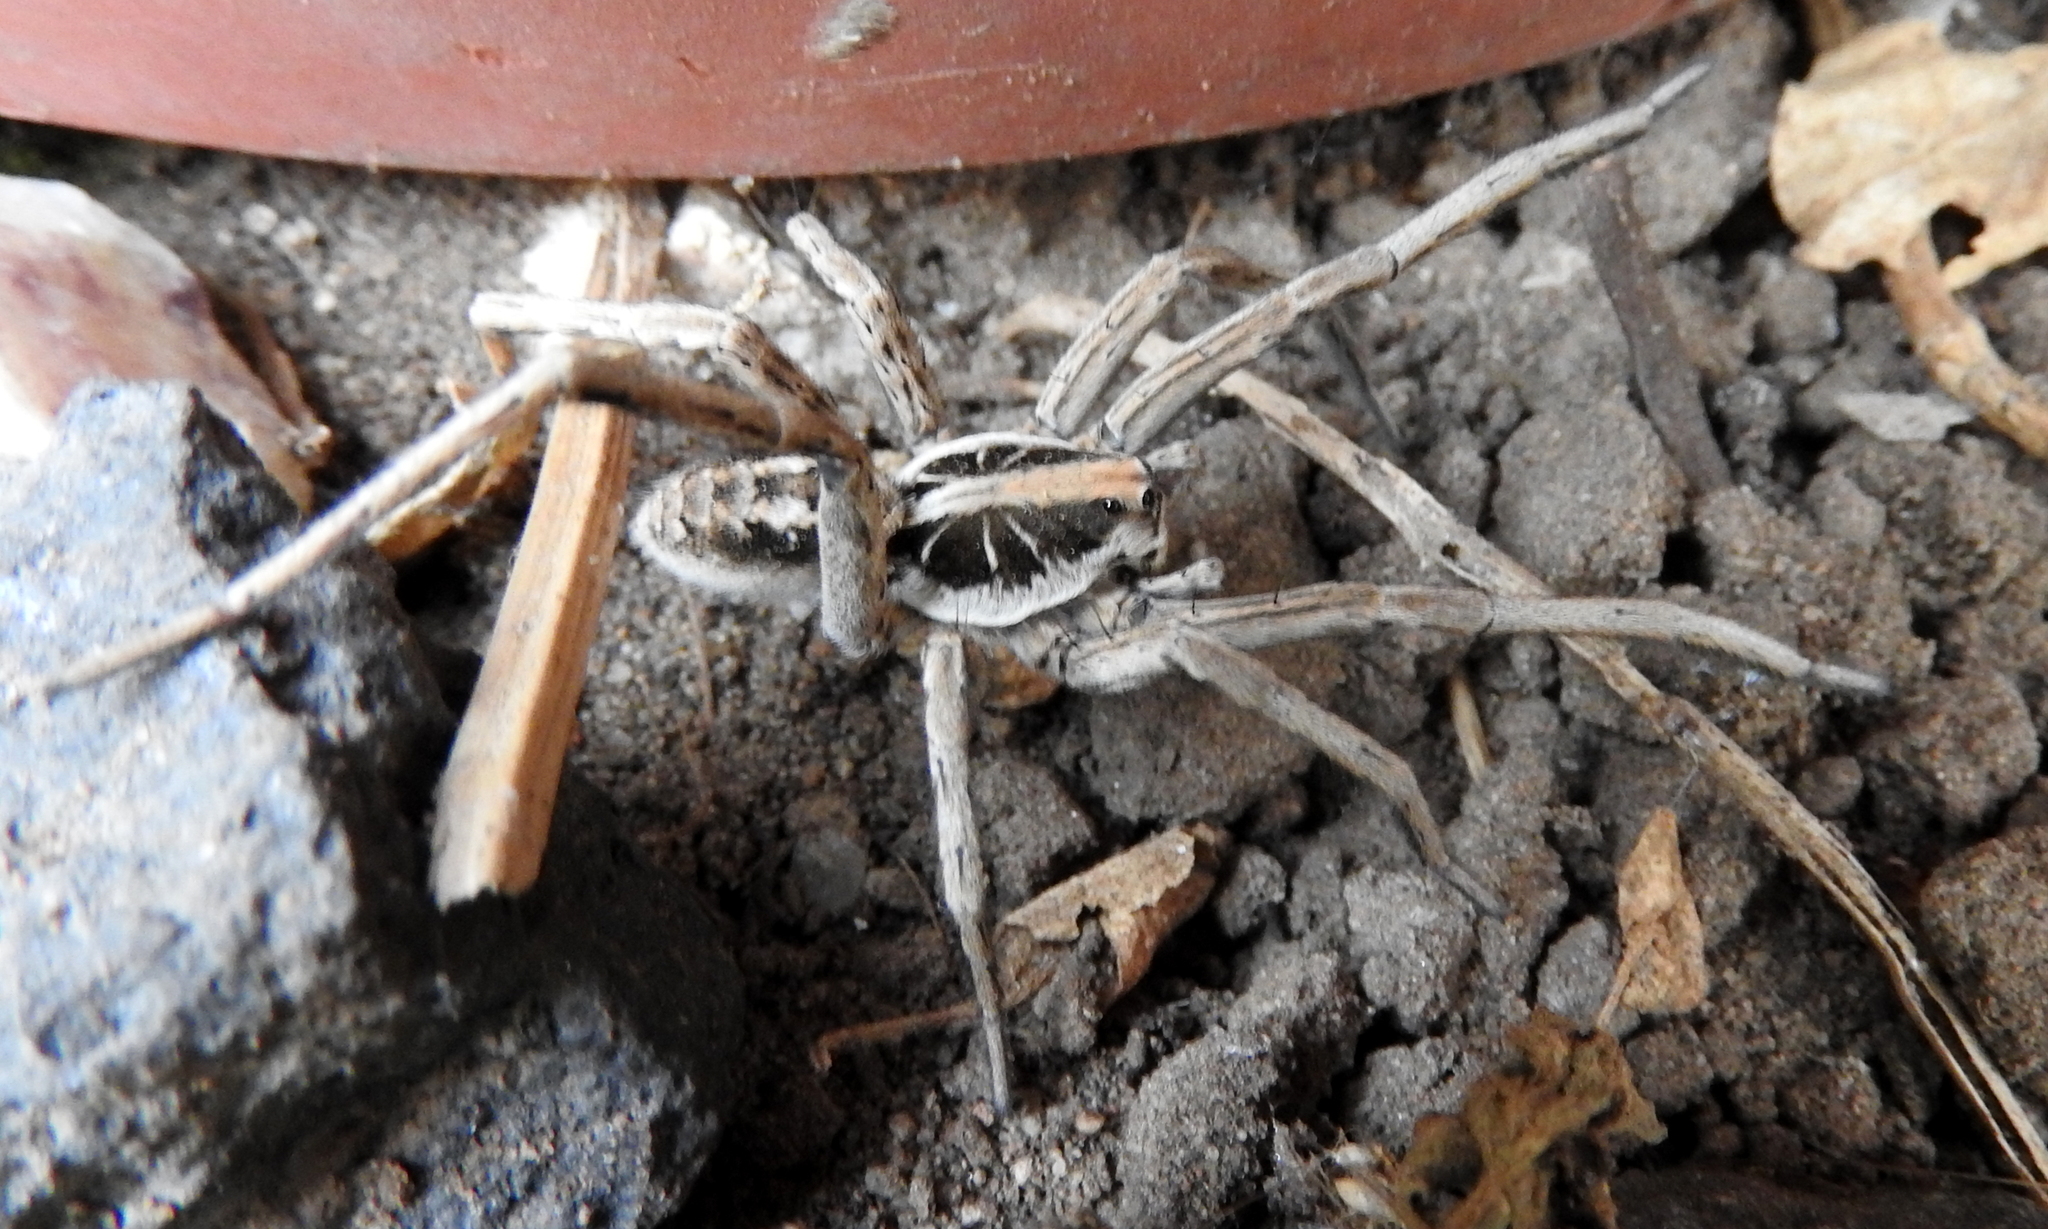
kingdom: Animalia
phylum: Arthropoda
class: Arachnida
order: Araneae
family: Lycosidae
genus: Schizocosa
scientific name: Schizocosa malitiosa
